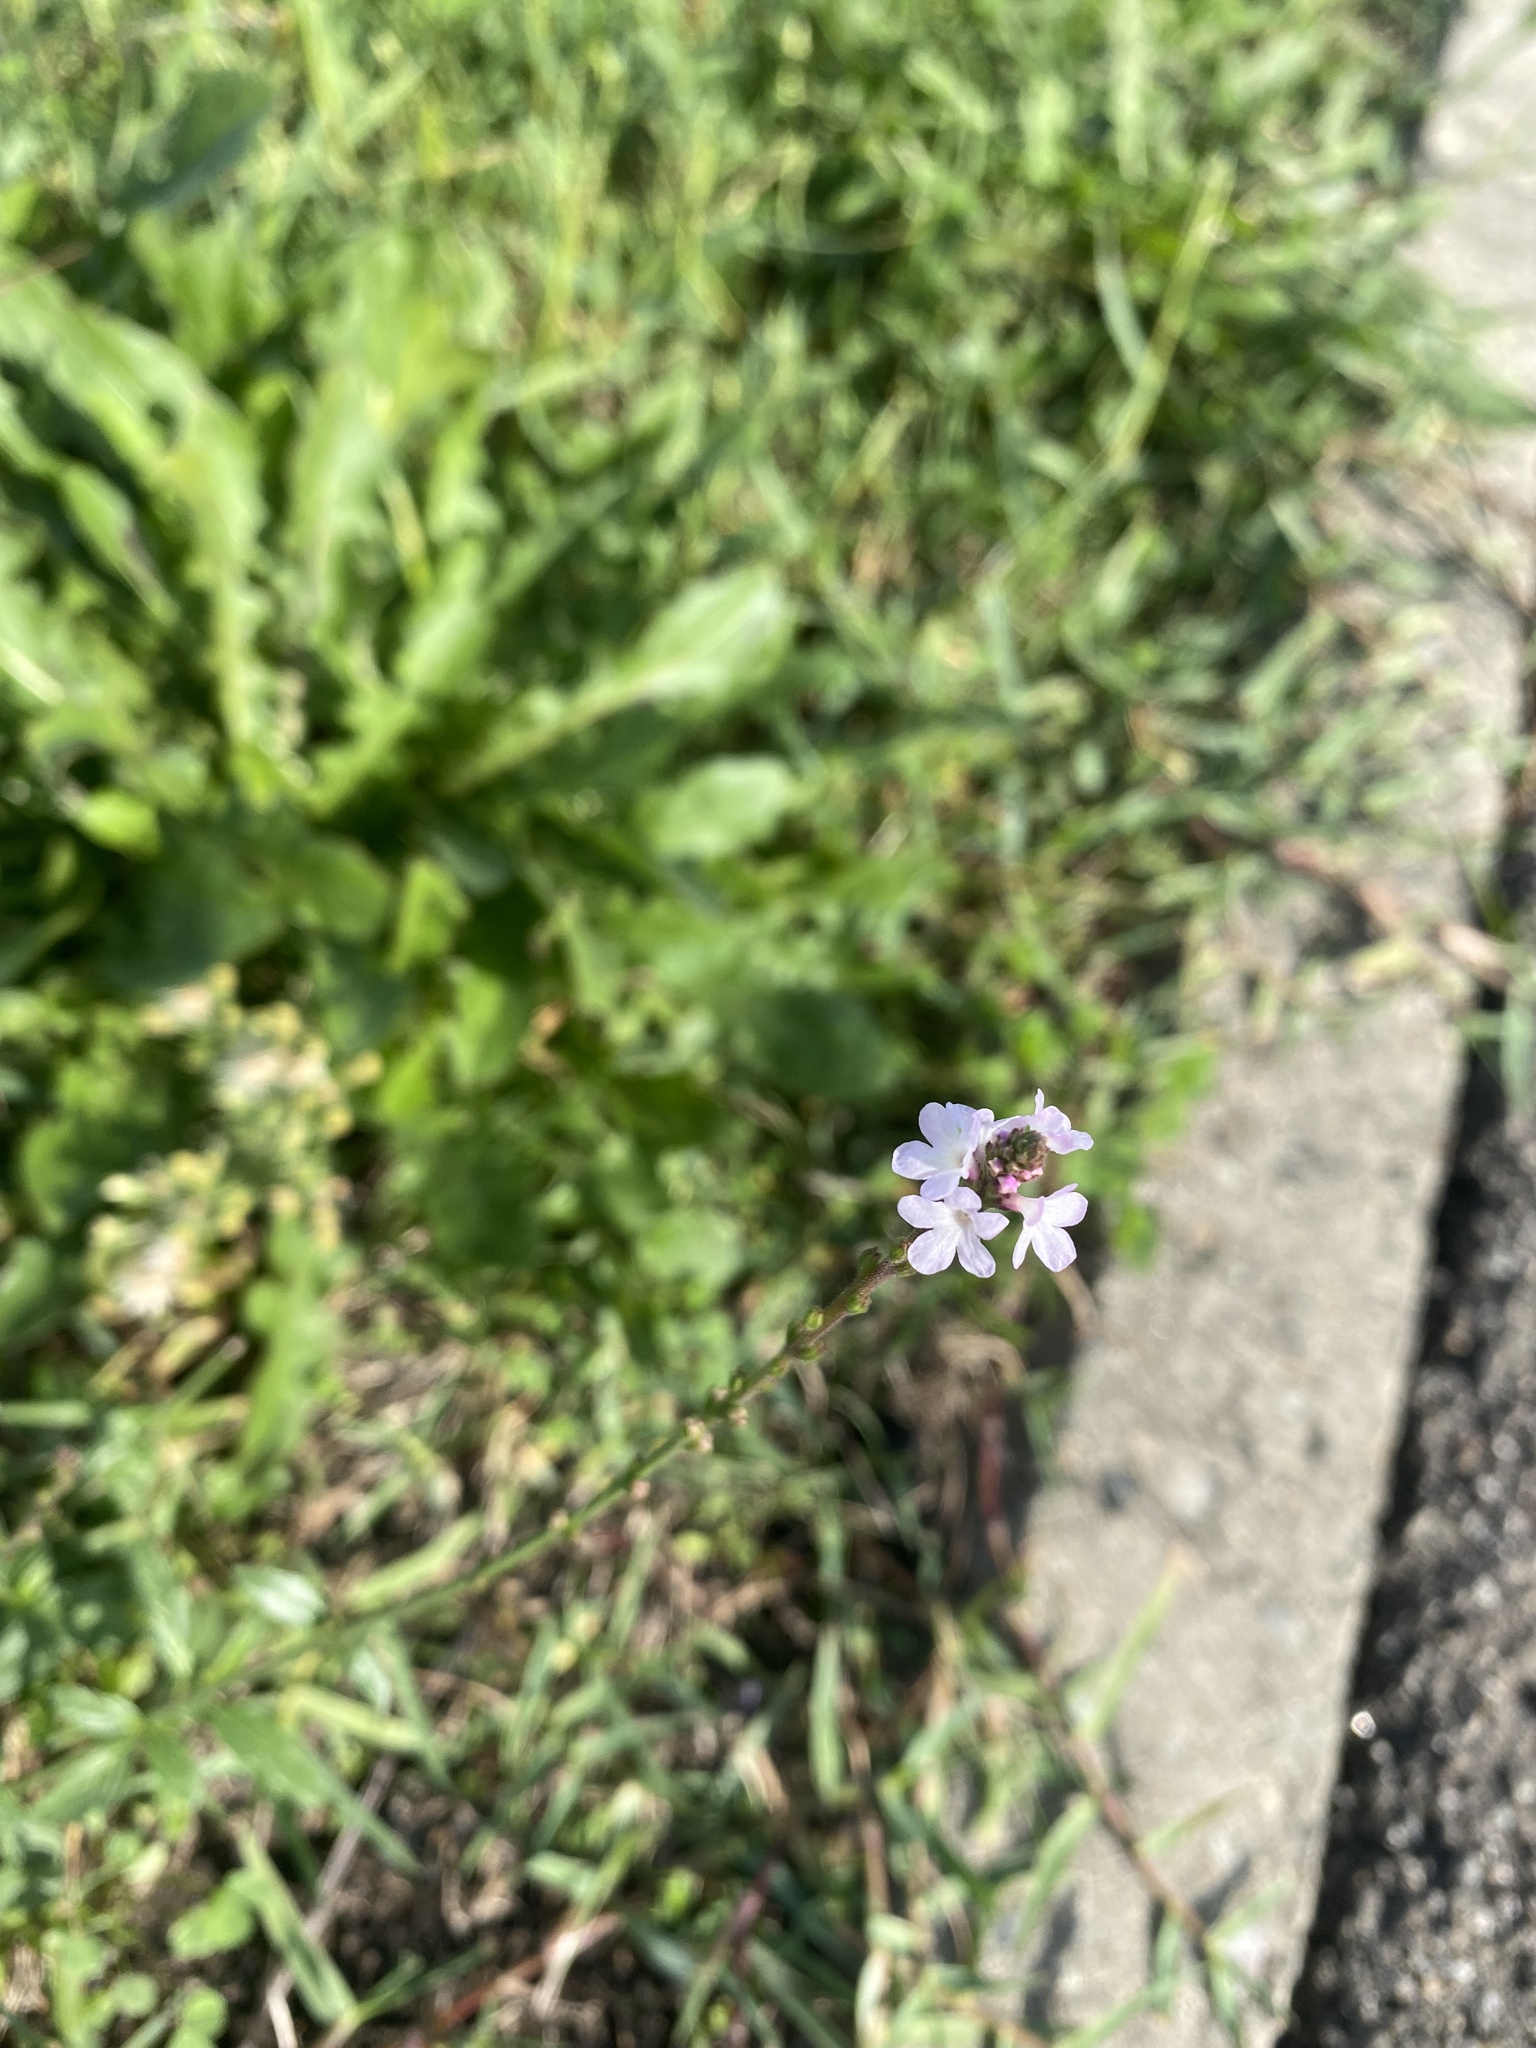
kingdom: Plantae
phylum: Tracheophyta
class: Magnoliopsida
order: Lamiales
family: Verbenaceae
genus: Verbena
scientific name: Verbena officinalis
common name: Vervain
